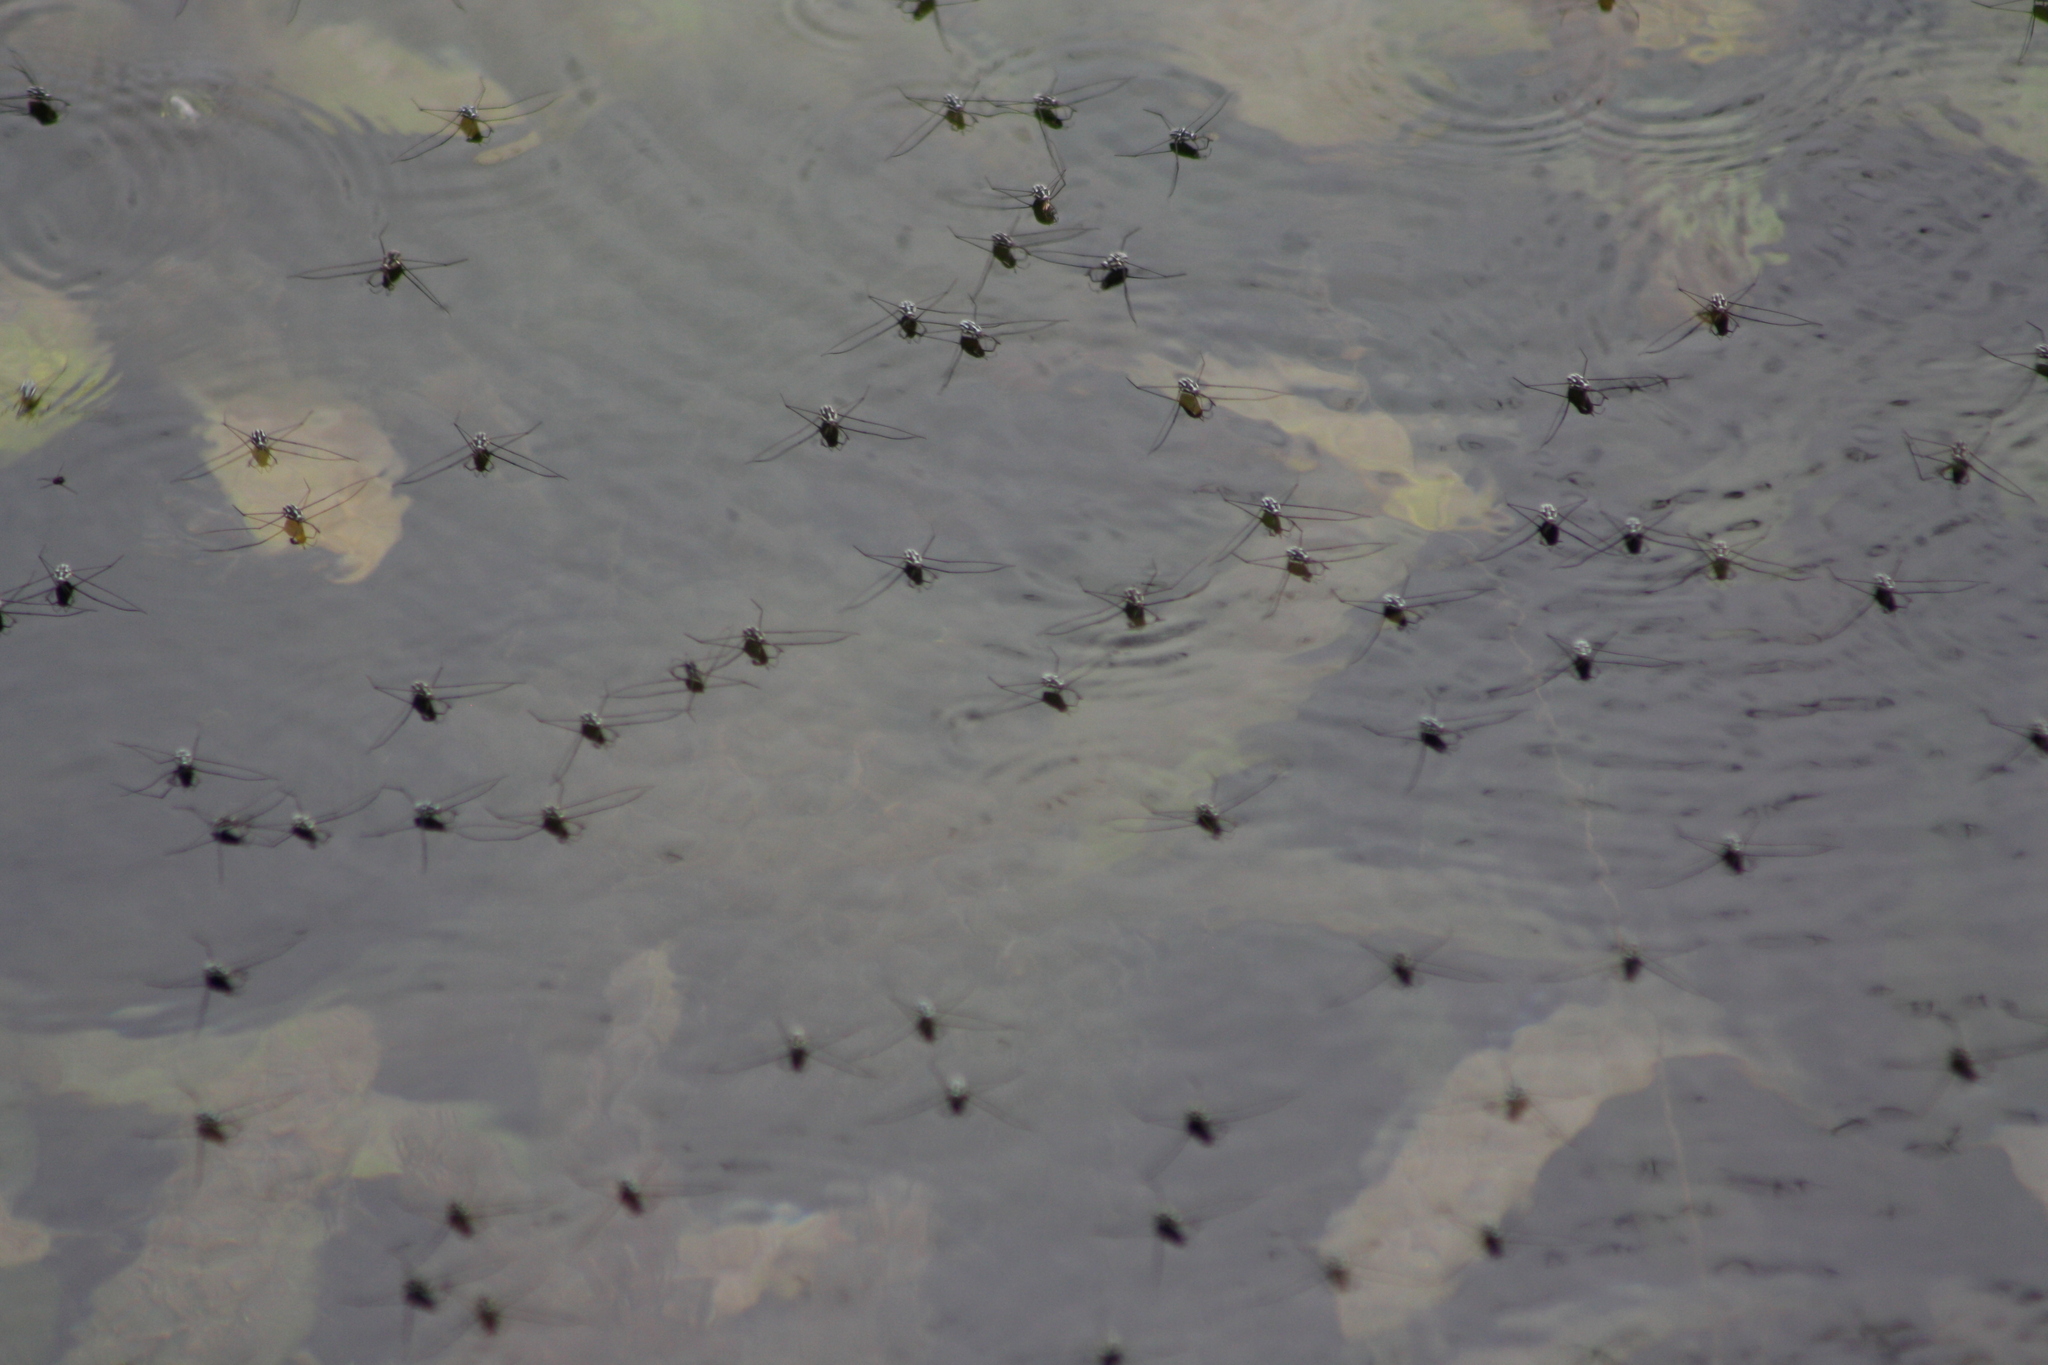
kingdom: Animalia
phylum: Arthropoda
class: Insecta
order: Hemiptera
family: Gerridae
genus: Metrobates
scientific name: Metrobates trux
